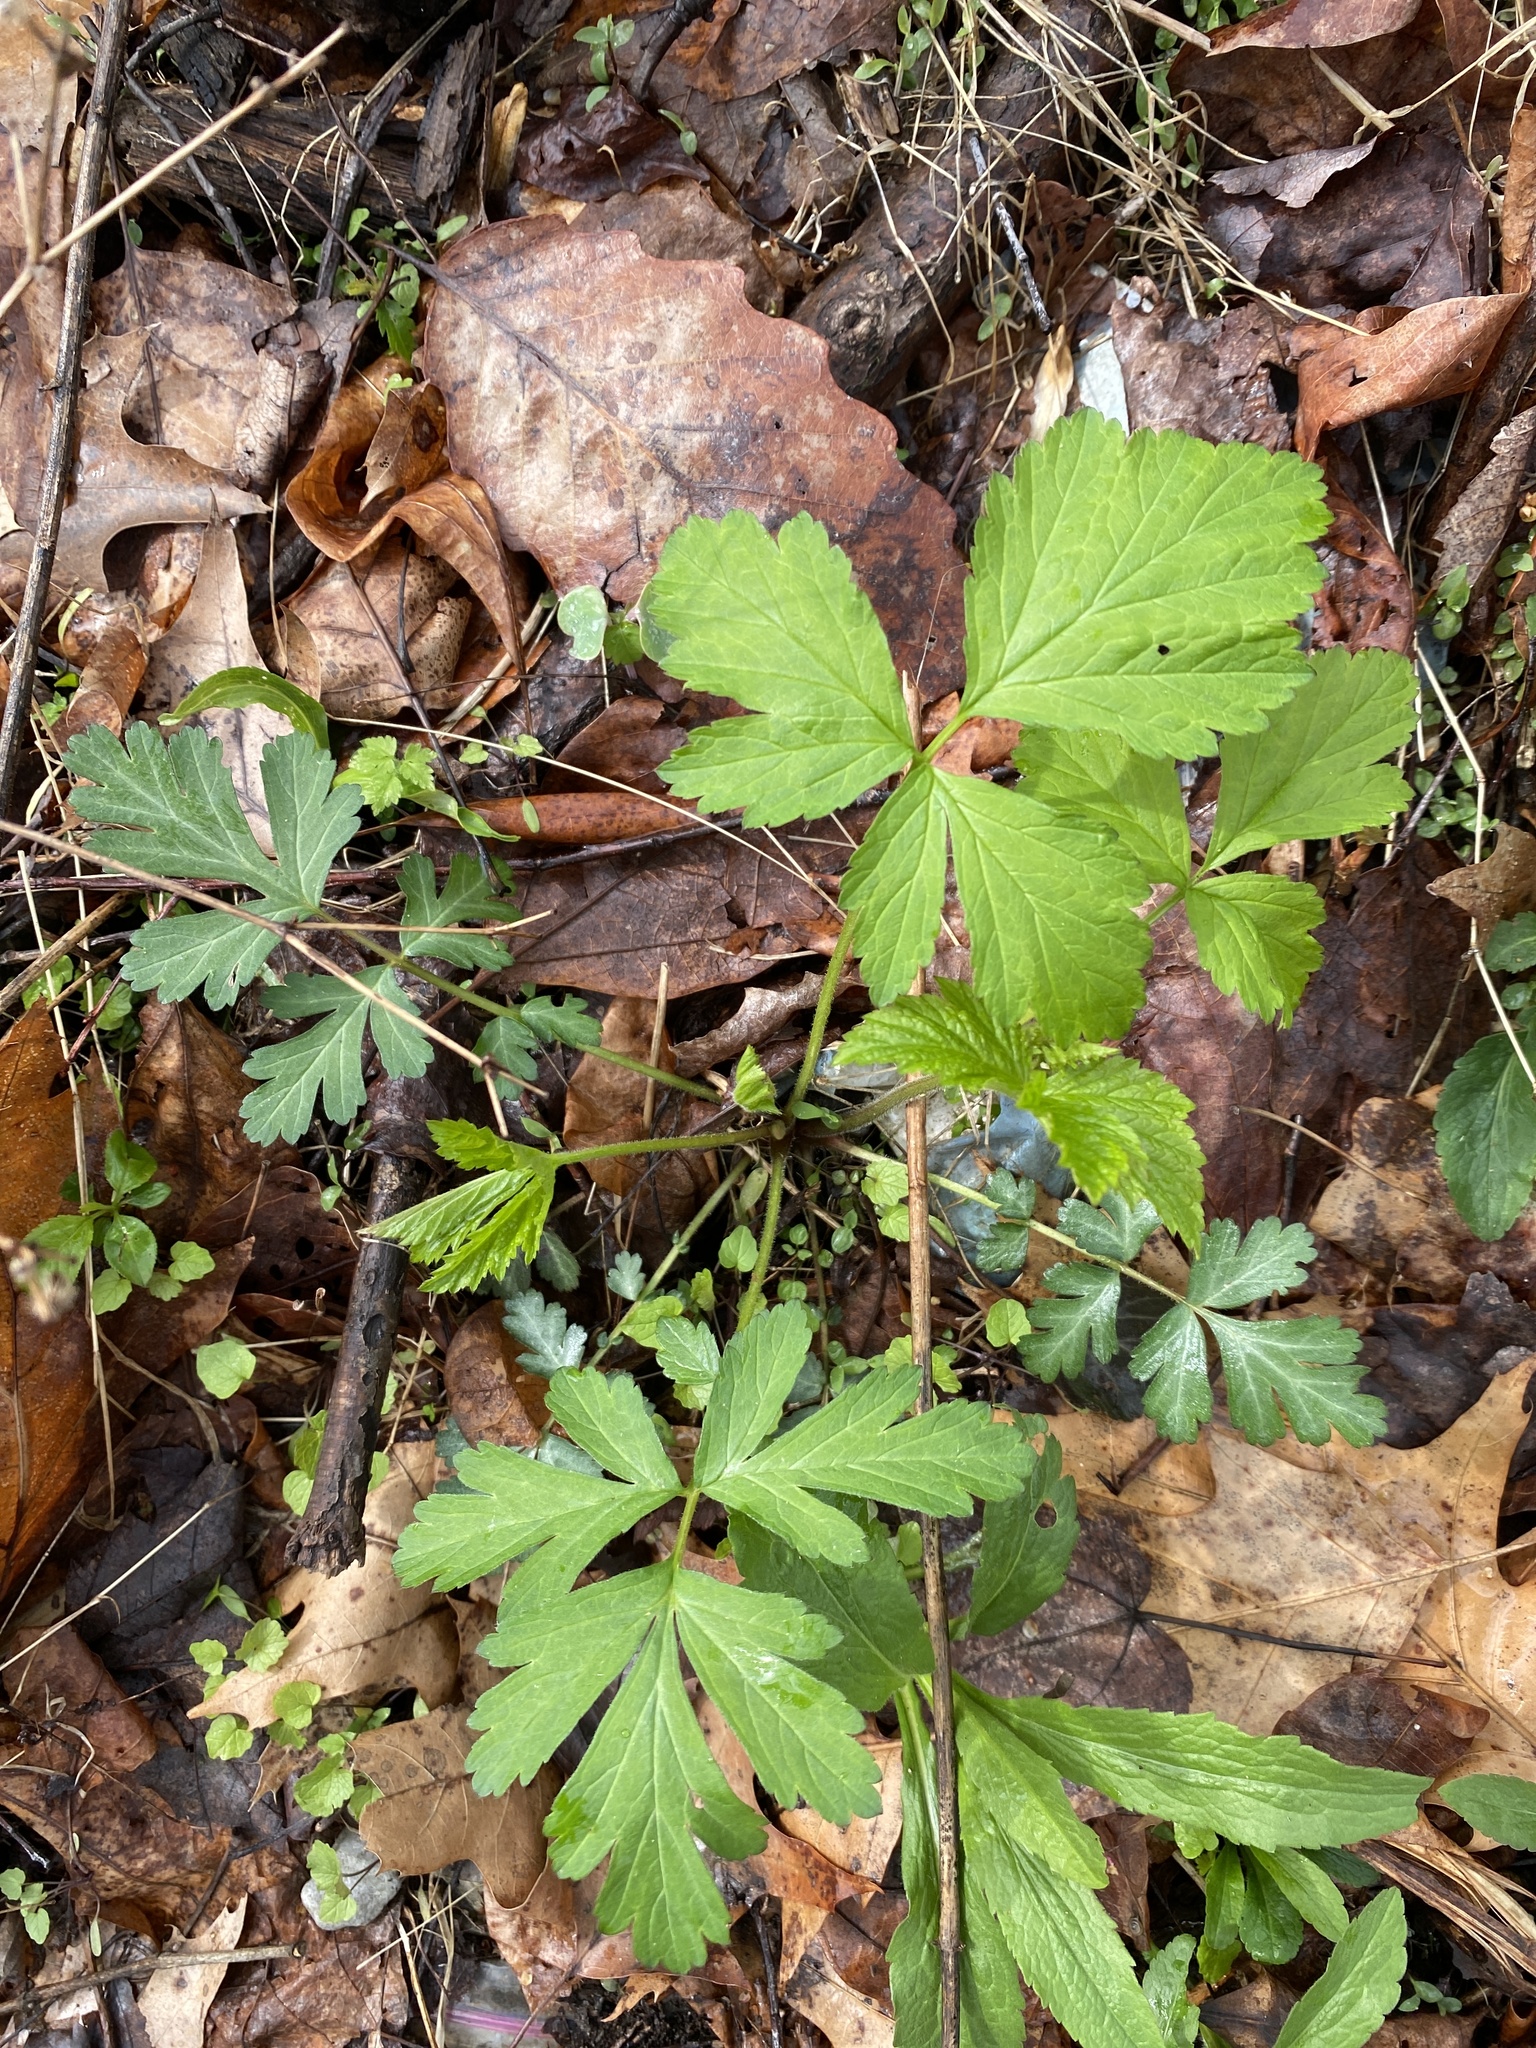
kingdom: Plantae
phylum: Tracheophyta
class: Magnoliopsida
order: Rosales
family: Rosaceae
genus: Geum
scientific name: Geum canadense
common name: White avens
